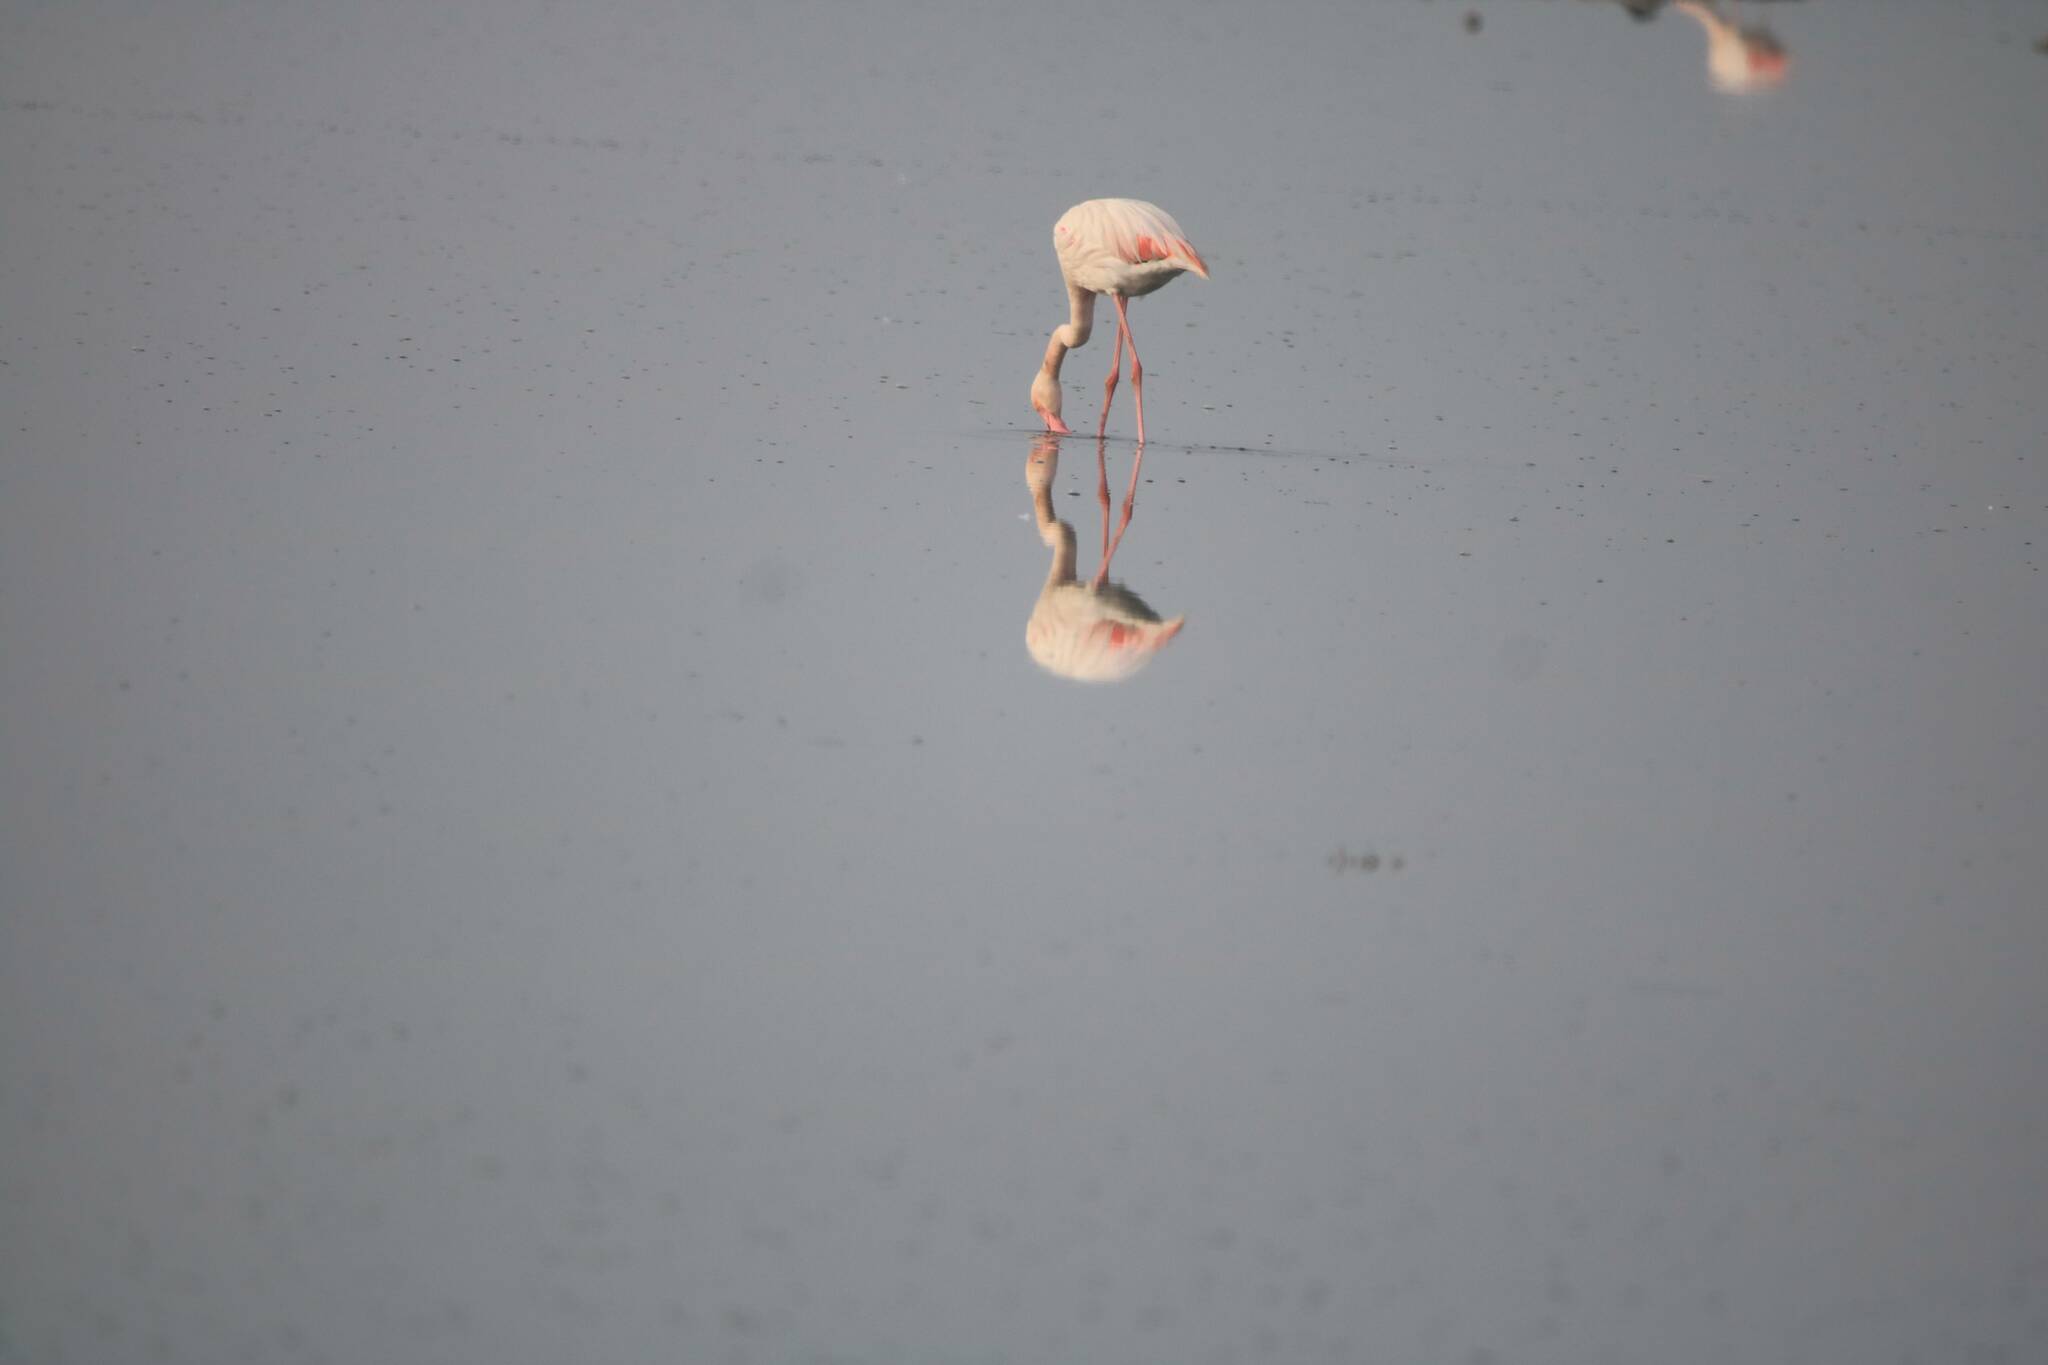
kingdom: Animalia
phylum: Chordata
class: Aves
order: Phoenicopteriformes
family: Phoenicopteridae
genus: Phoenicopterus
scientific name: Phoenicopterus roseus
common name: Greater flamingo
